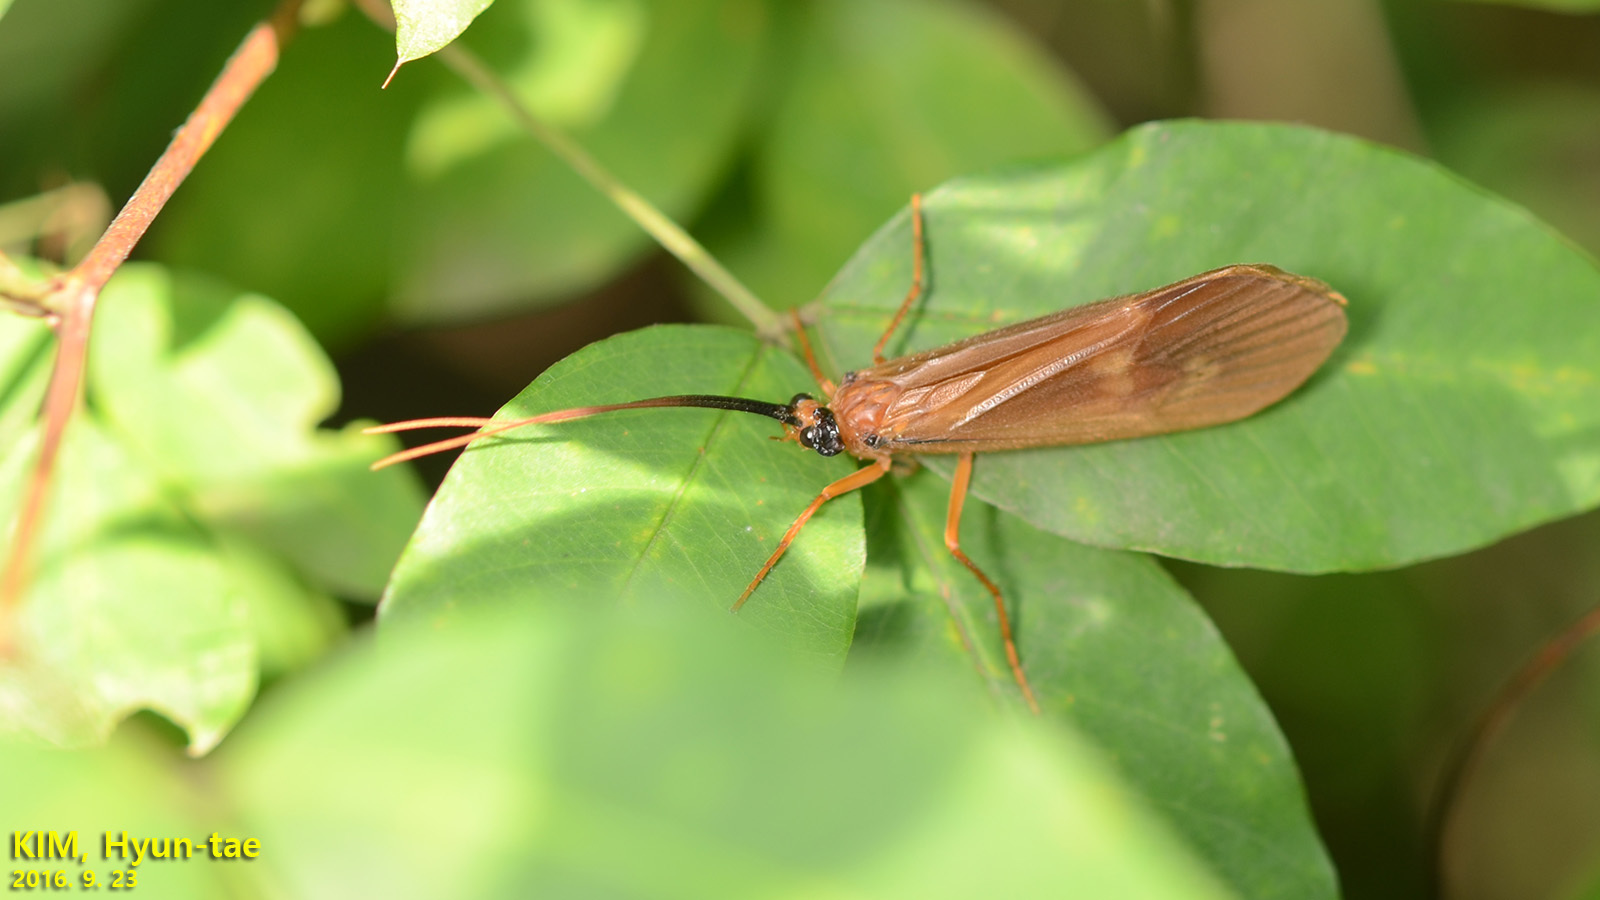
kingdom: Animalia
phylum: Arthropoda
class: Insecta
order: Trichoptera
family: Limnephilidae
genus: Hydatophylax
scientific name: Hydatophylax formosus
